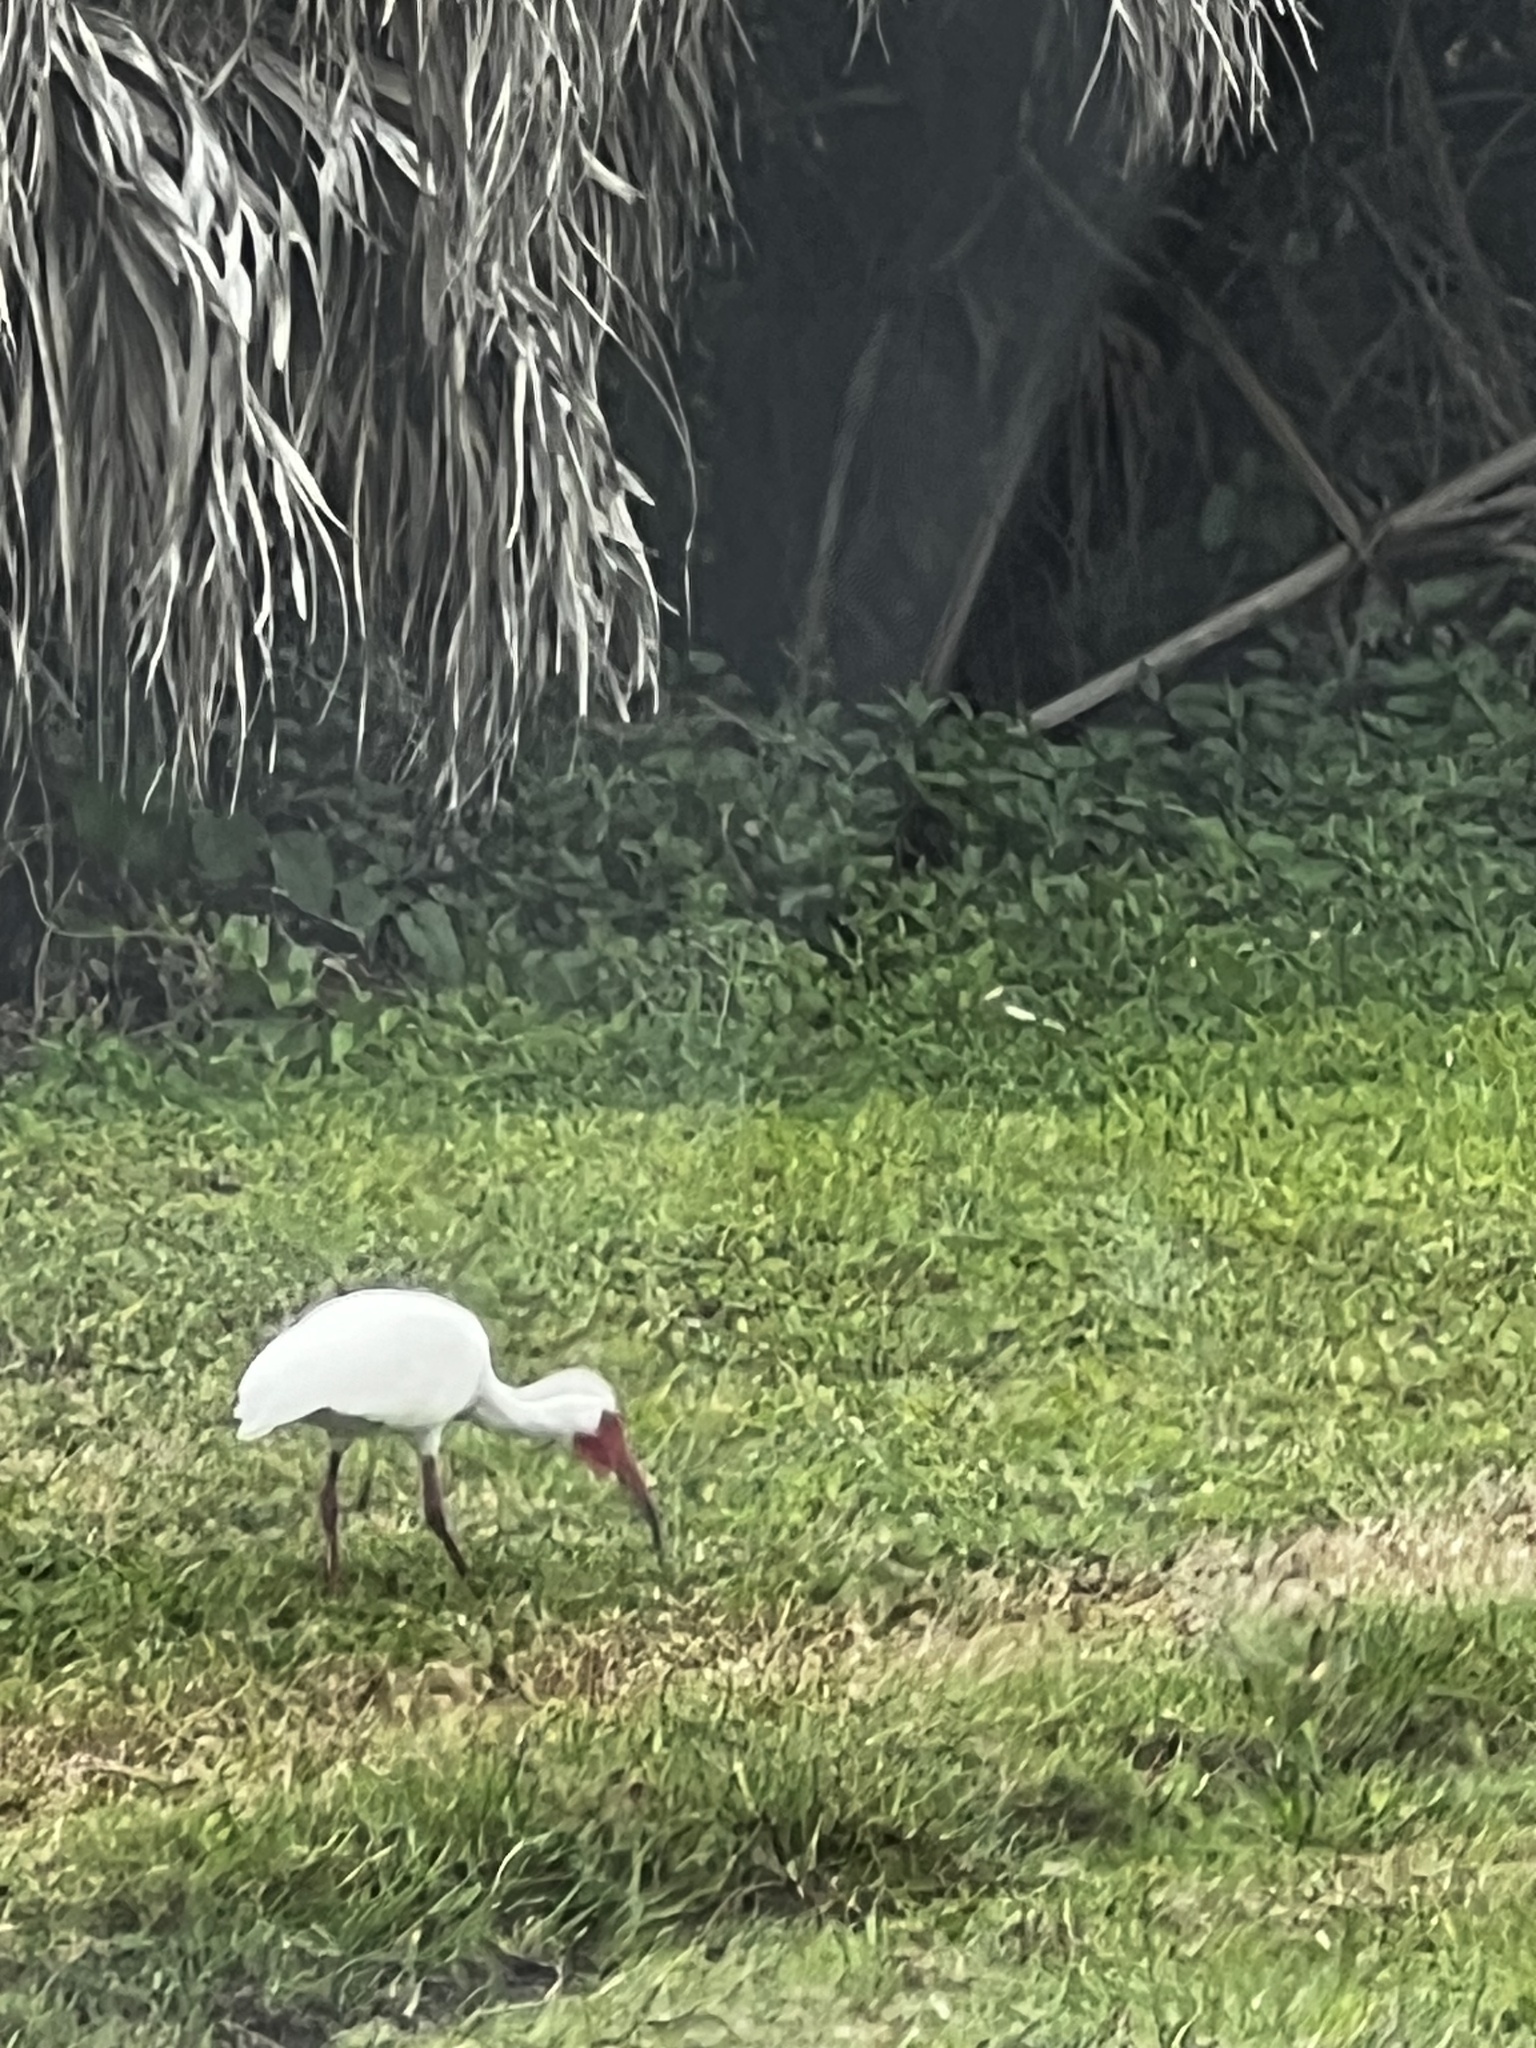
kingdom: Animalia
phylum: Chordata
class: Aves
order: Pelecaniformes
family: Threskiornithidae
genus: Eudocimus
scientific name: Eudocimus albus
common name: White ibis
